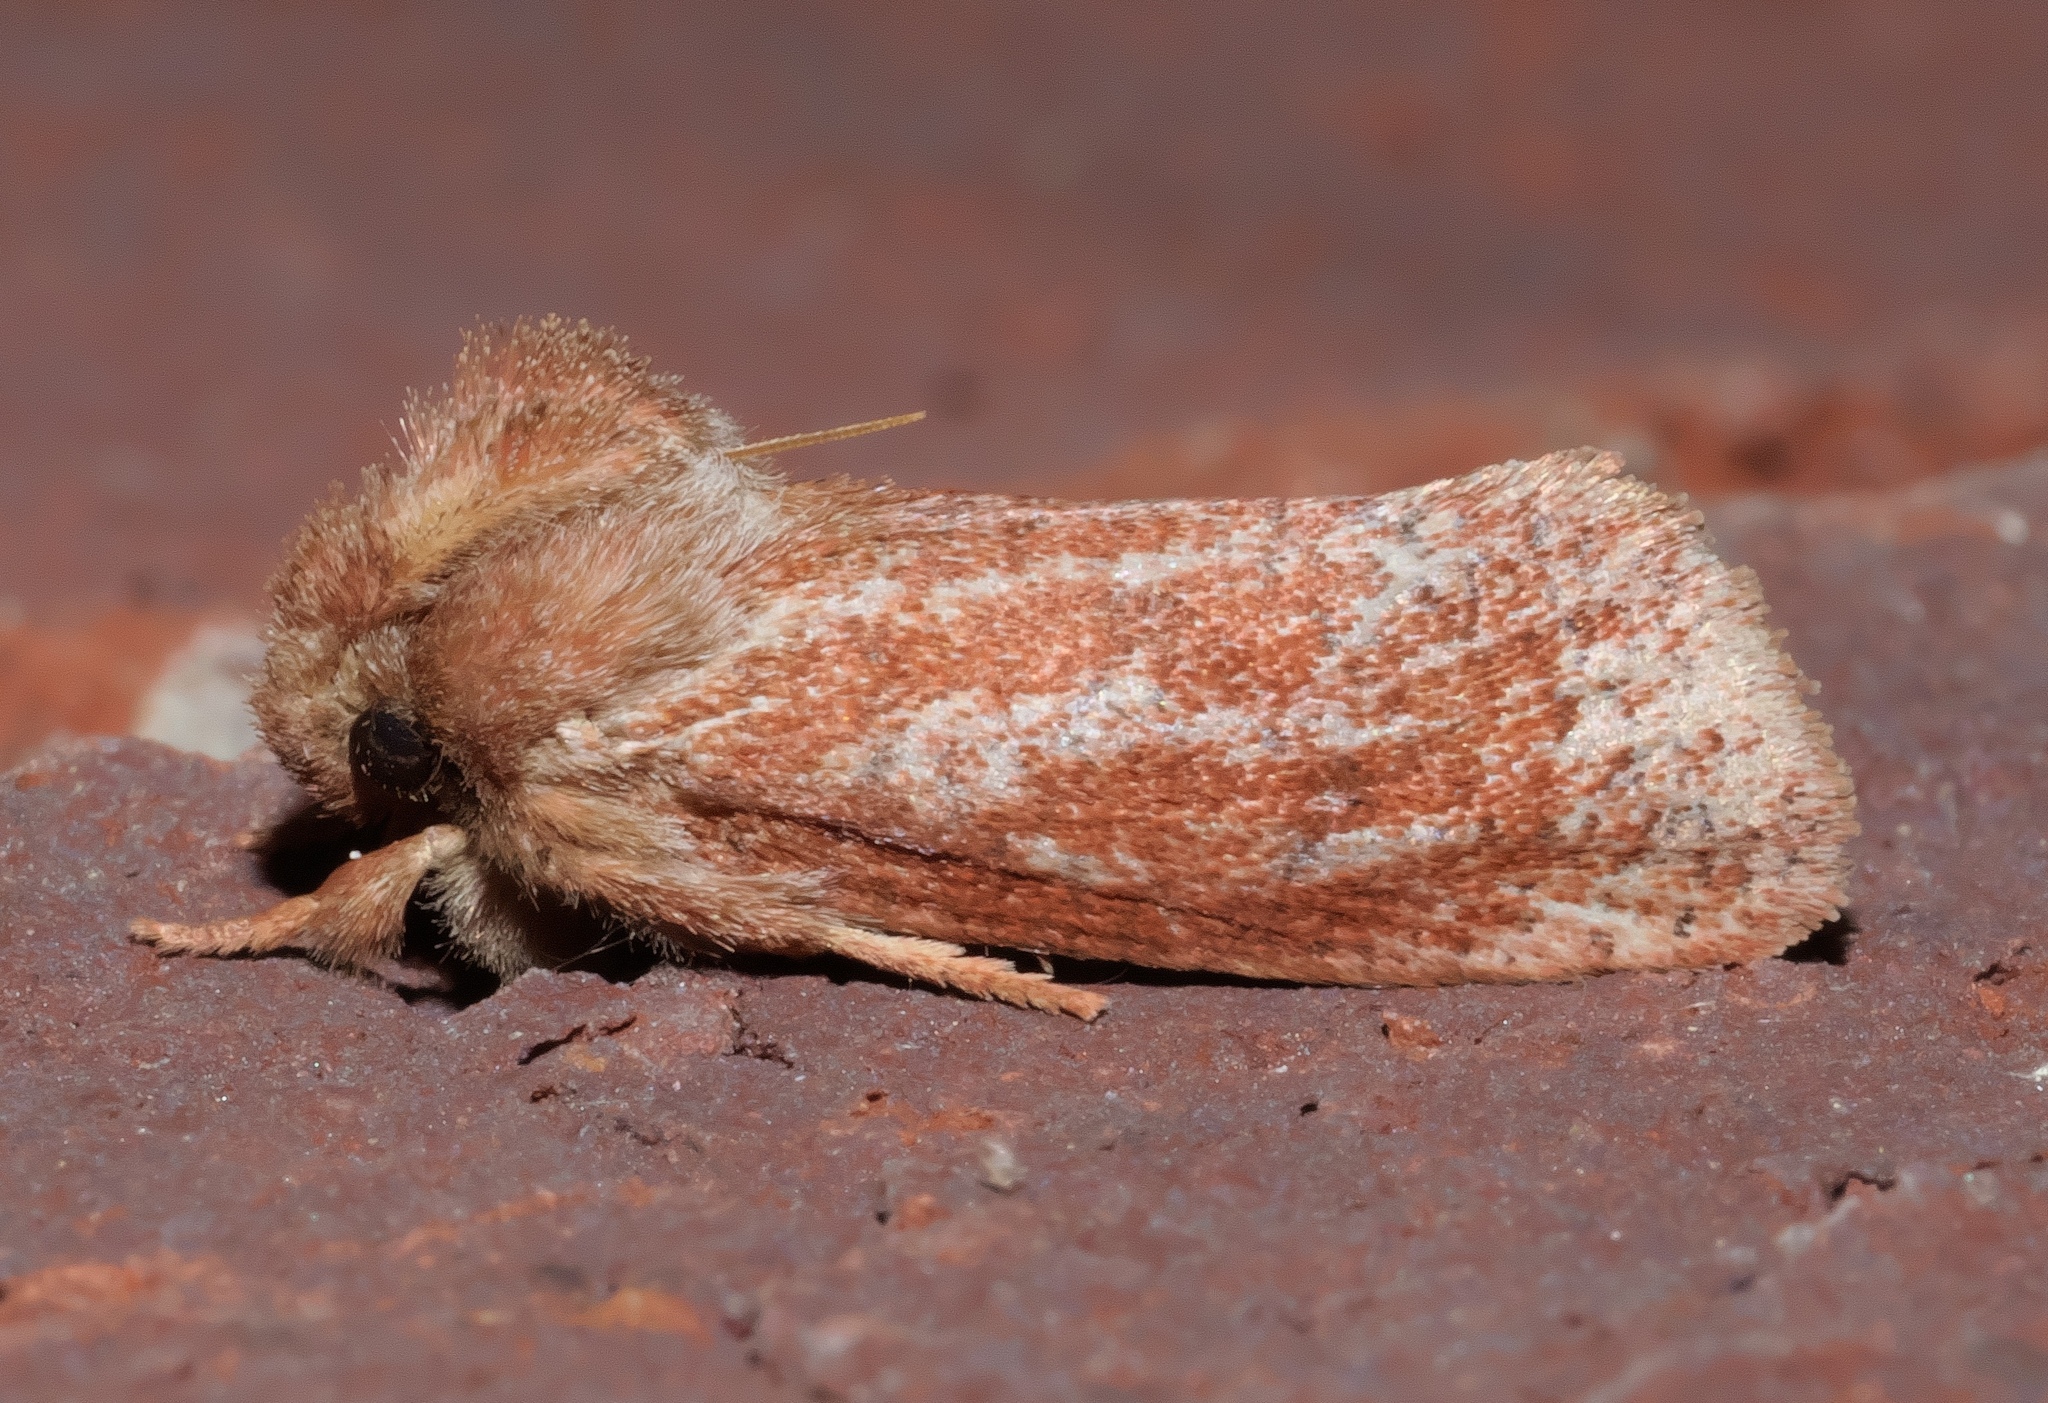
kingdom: Animalia
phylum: Arthropoda
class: Insecta
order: Lepidoptera
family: Tineidae
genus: Acrolophus
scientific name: Acrolophus plumifrontella
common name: Eastern grass tubeworm moth
